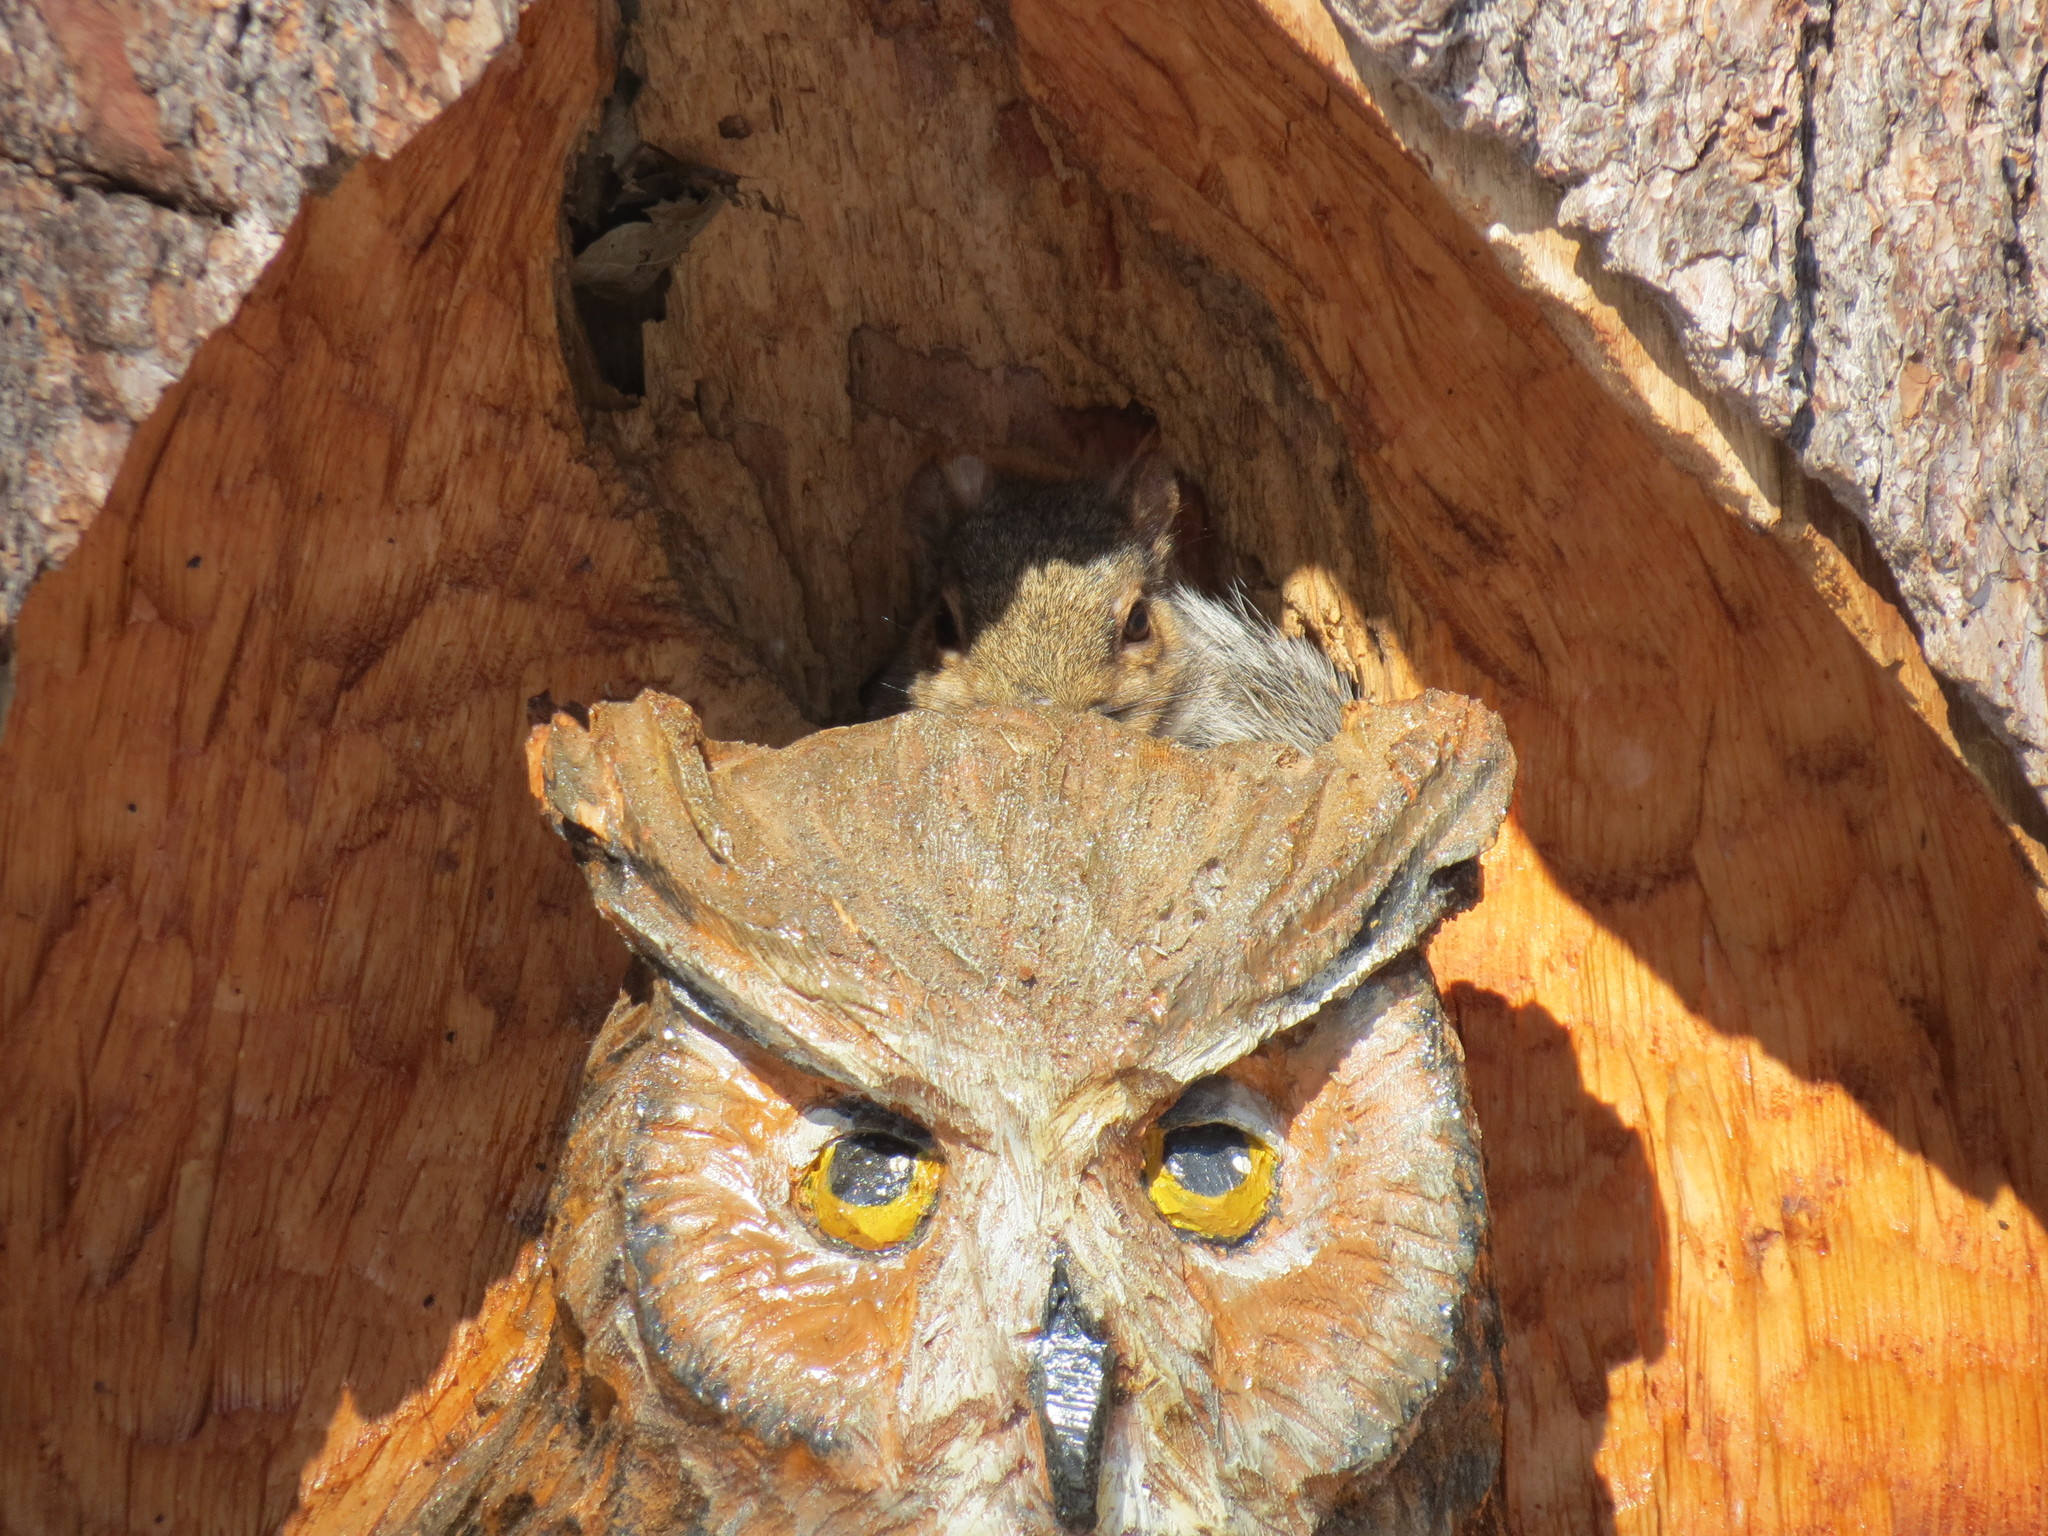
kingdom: Animalia
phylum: Chordata
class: Mammalia
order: Rodentia
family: Sciuridae
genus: Sciurus
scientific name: Sciurus carolinensis
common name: Eastern gray squirrel
